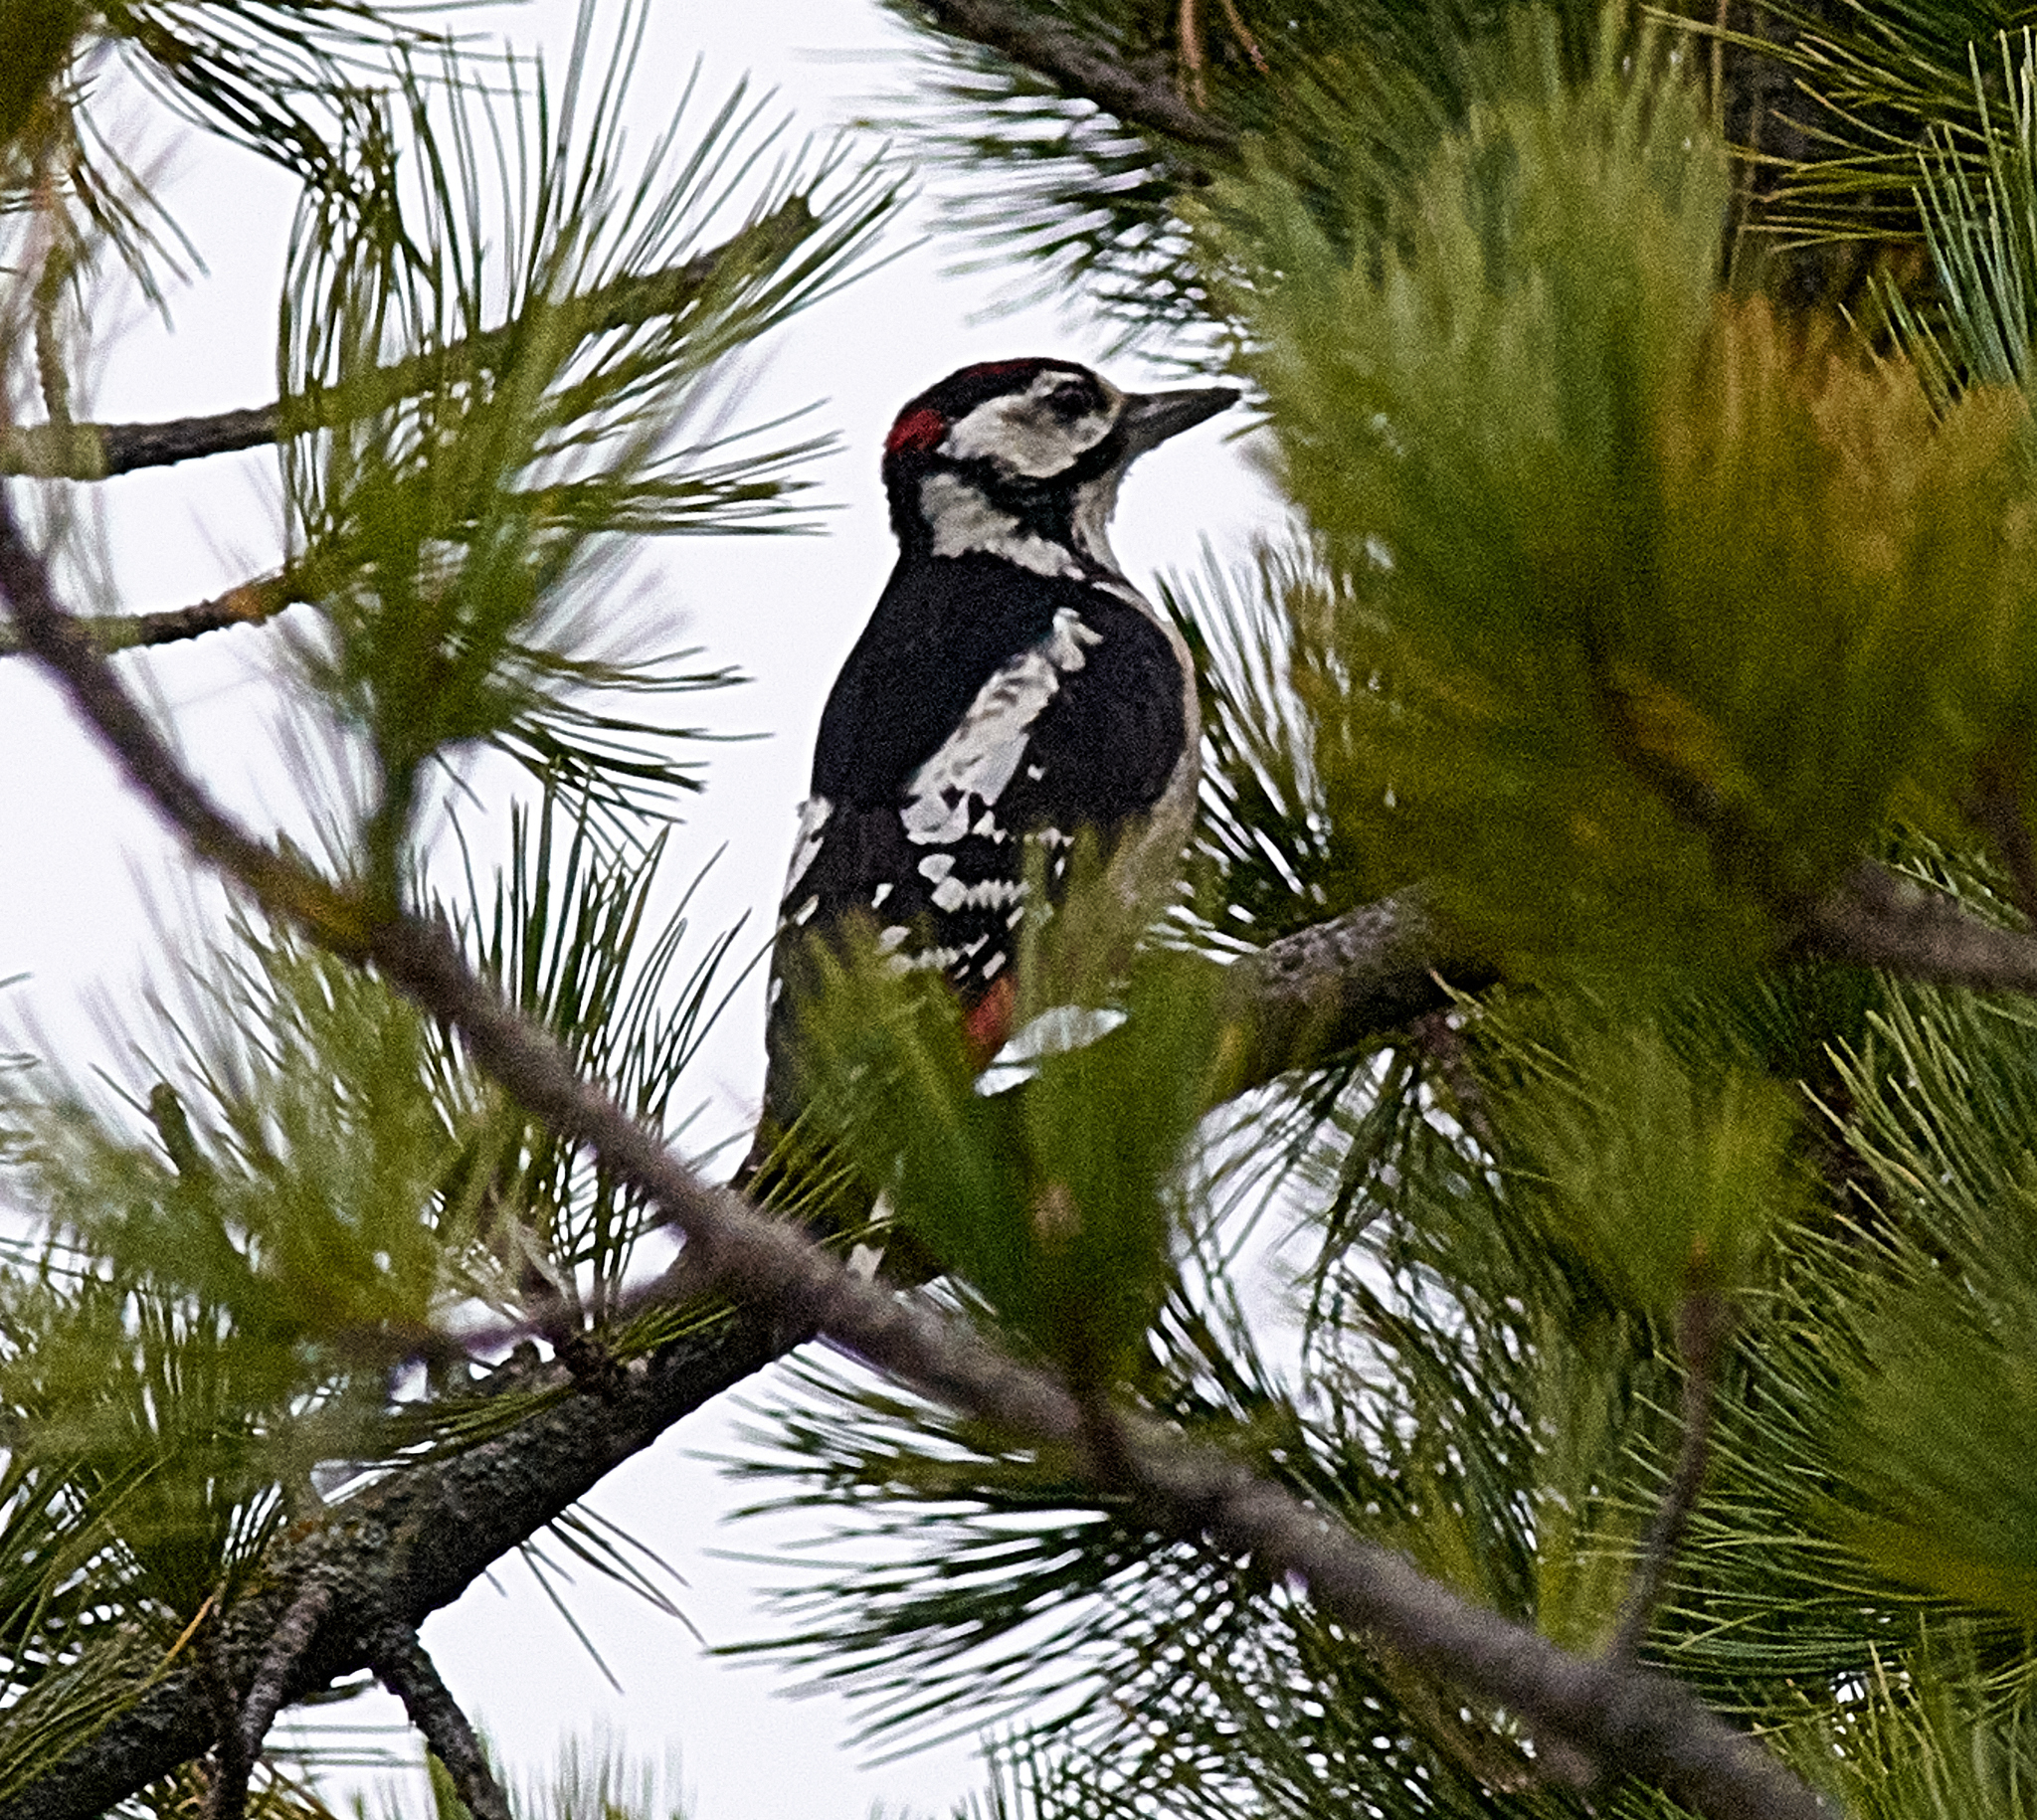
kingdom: Animalia
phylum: Chordata
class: Aves
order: Piciformes
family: Picidae
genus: Dendrocopos
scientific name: Dendrocopos major
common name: Great spotted woodpecker
